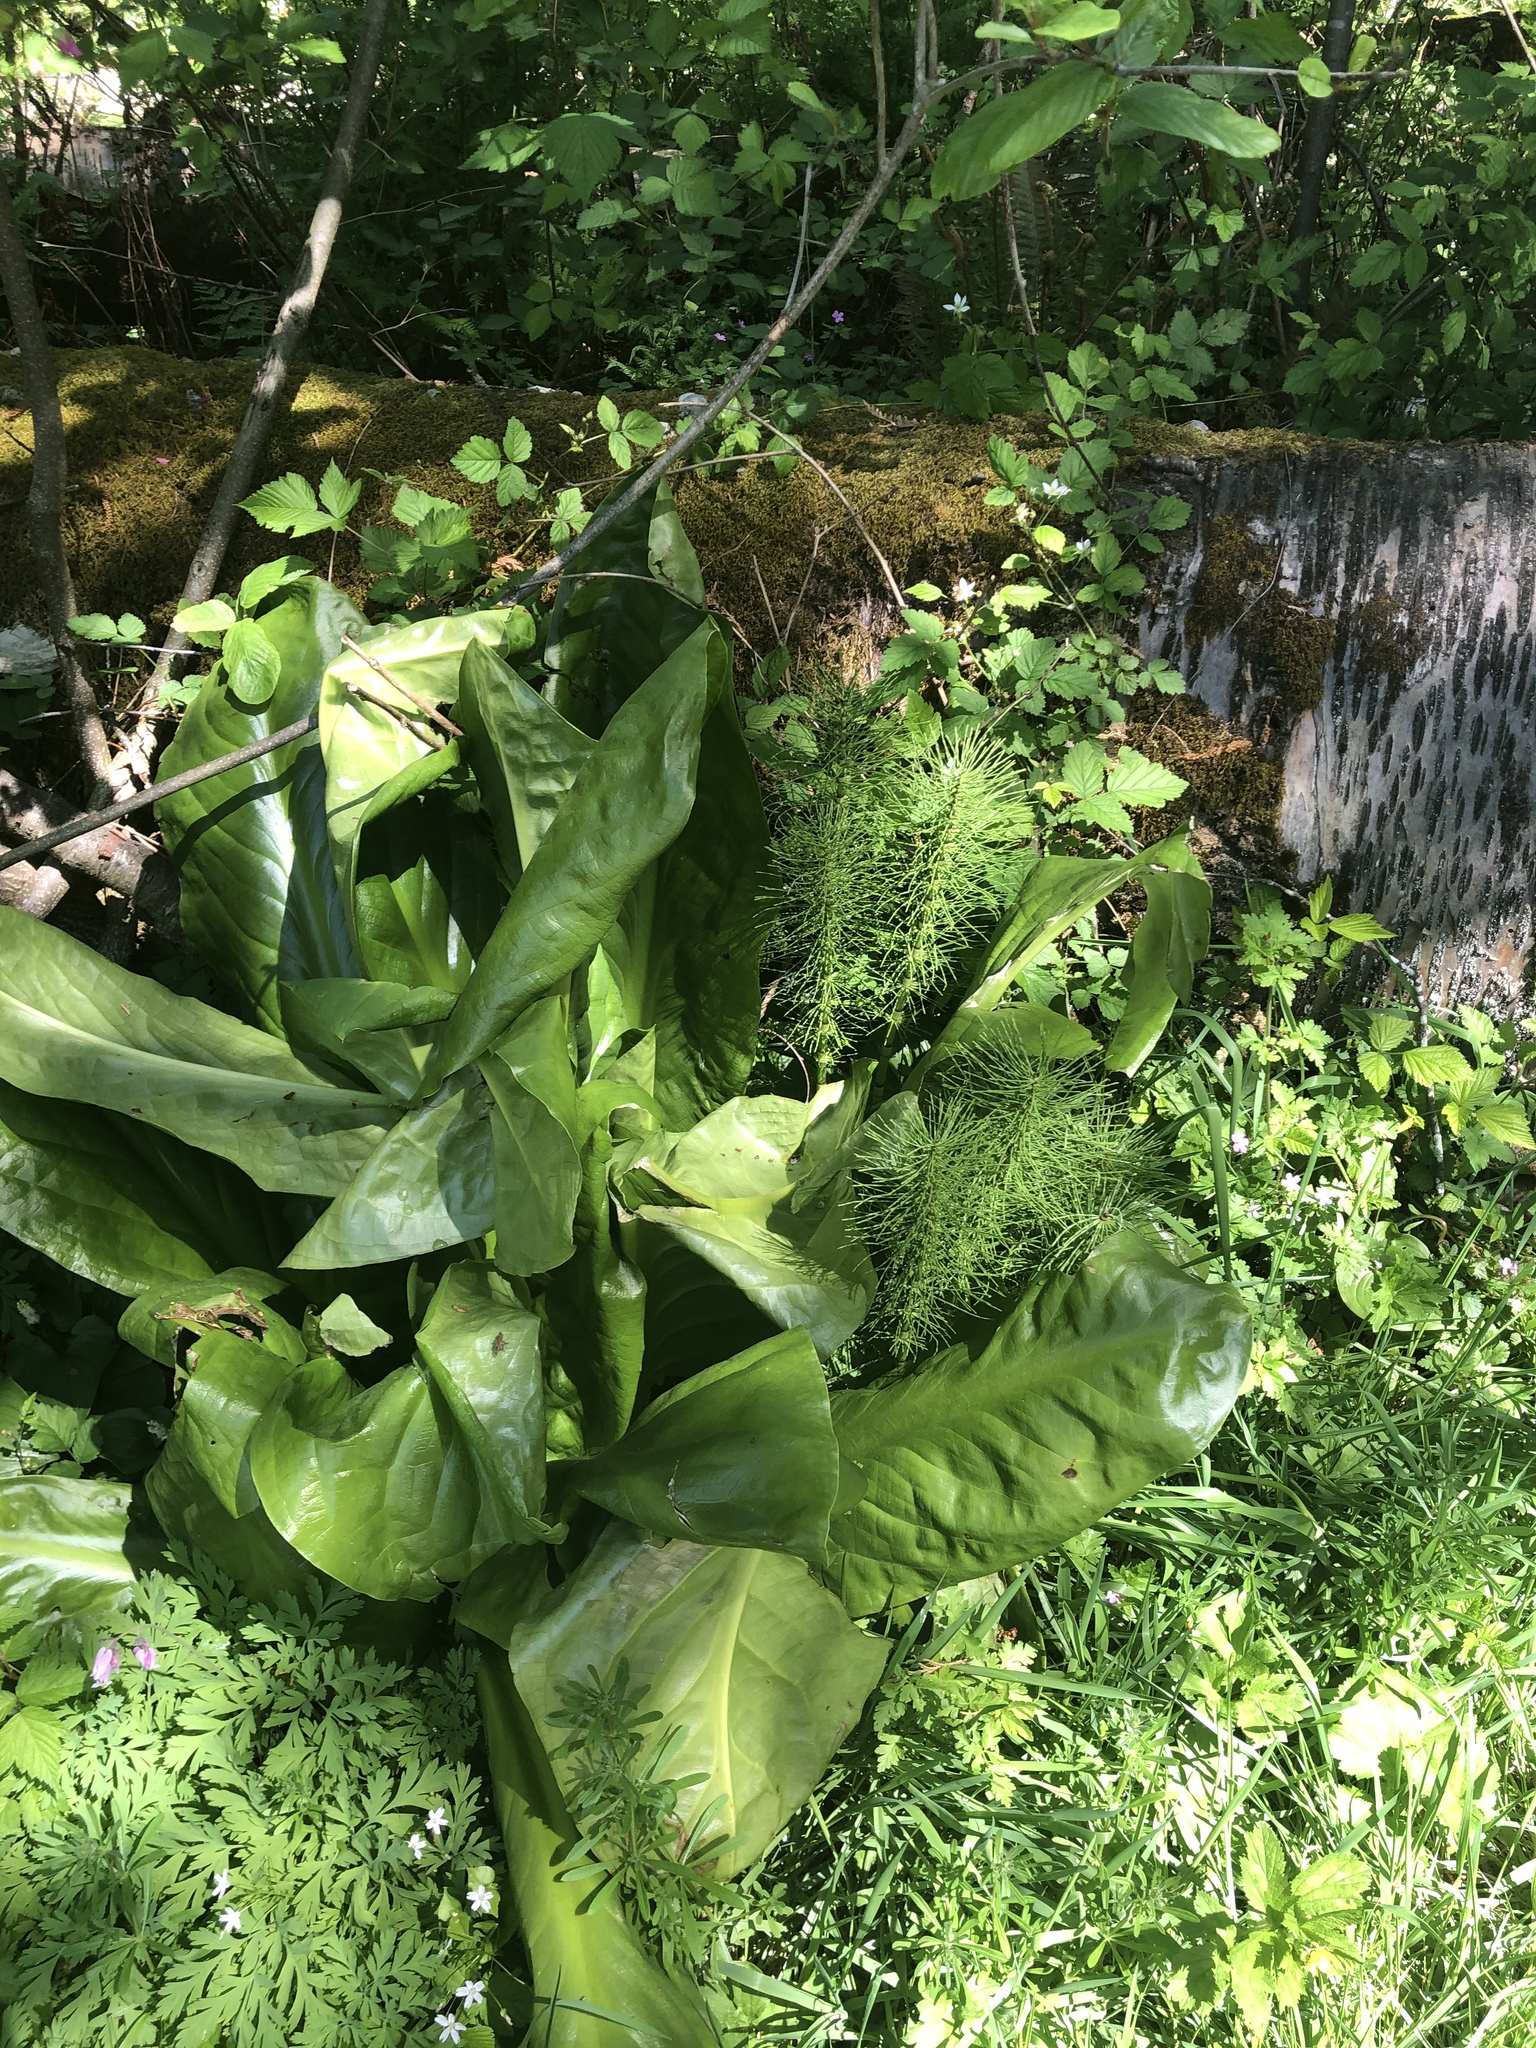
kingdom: Plantae
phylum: Tracheophyta
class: Liliopsida
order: Alismatales
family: Araceae
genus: Lysichiton
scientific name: Lysichiton americanus
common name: American skunk cabbage
